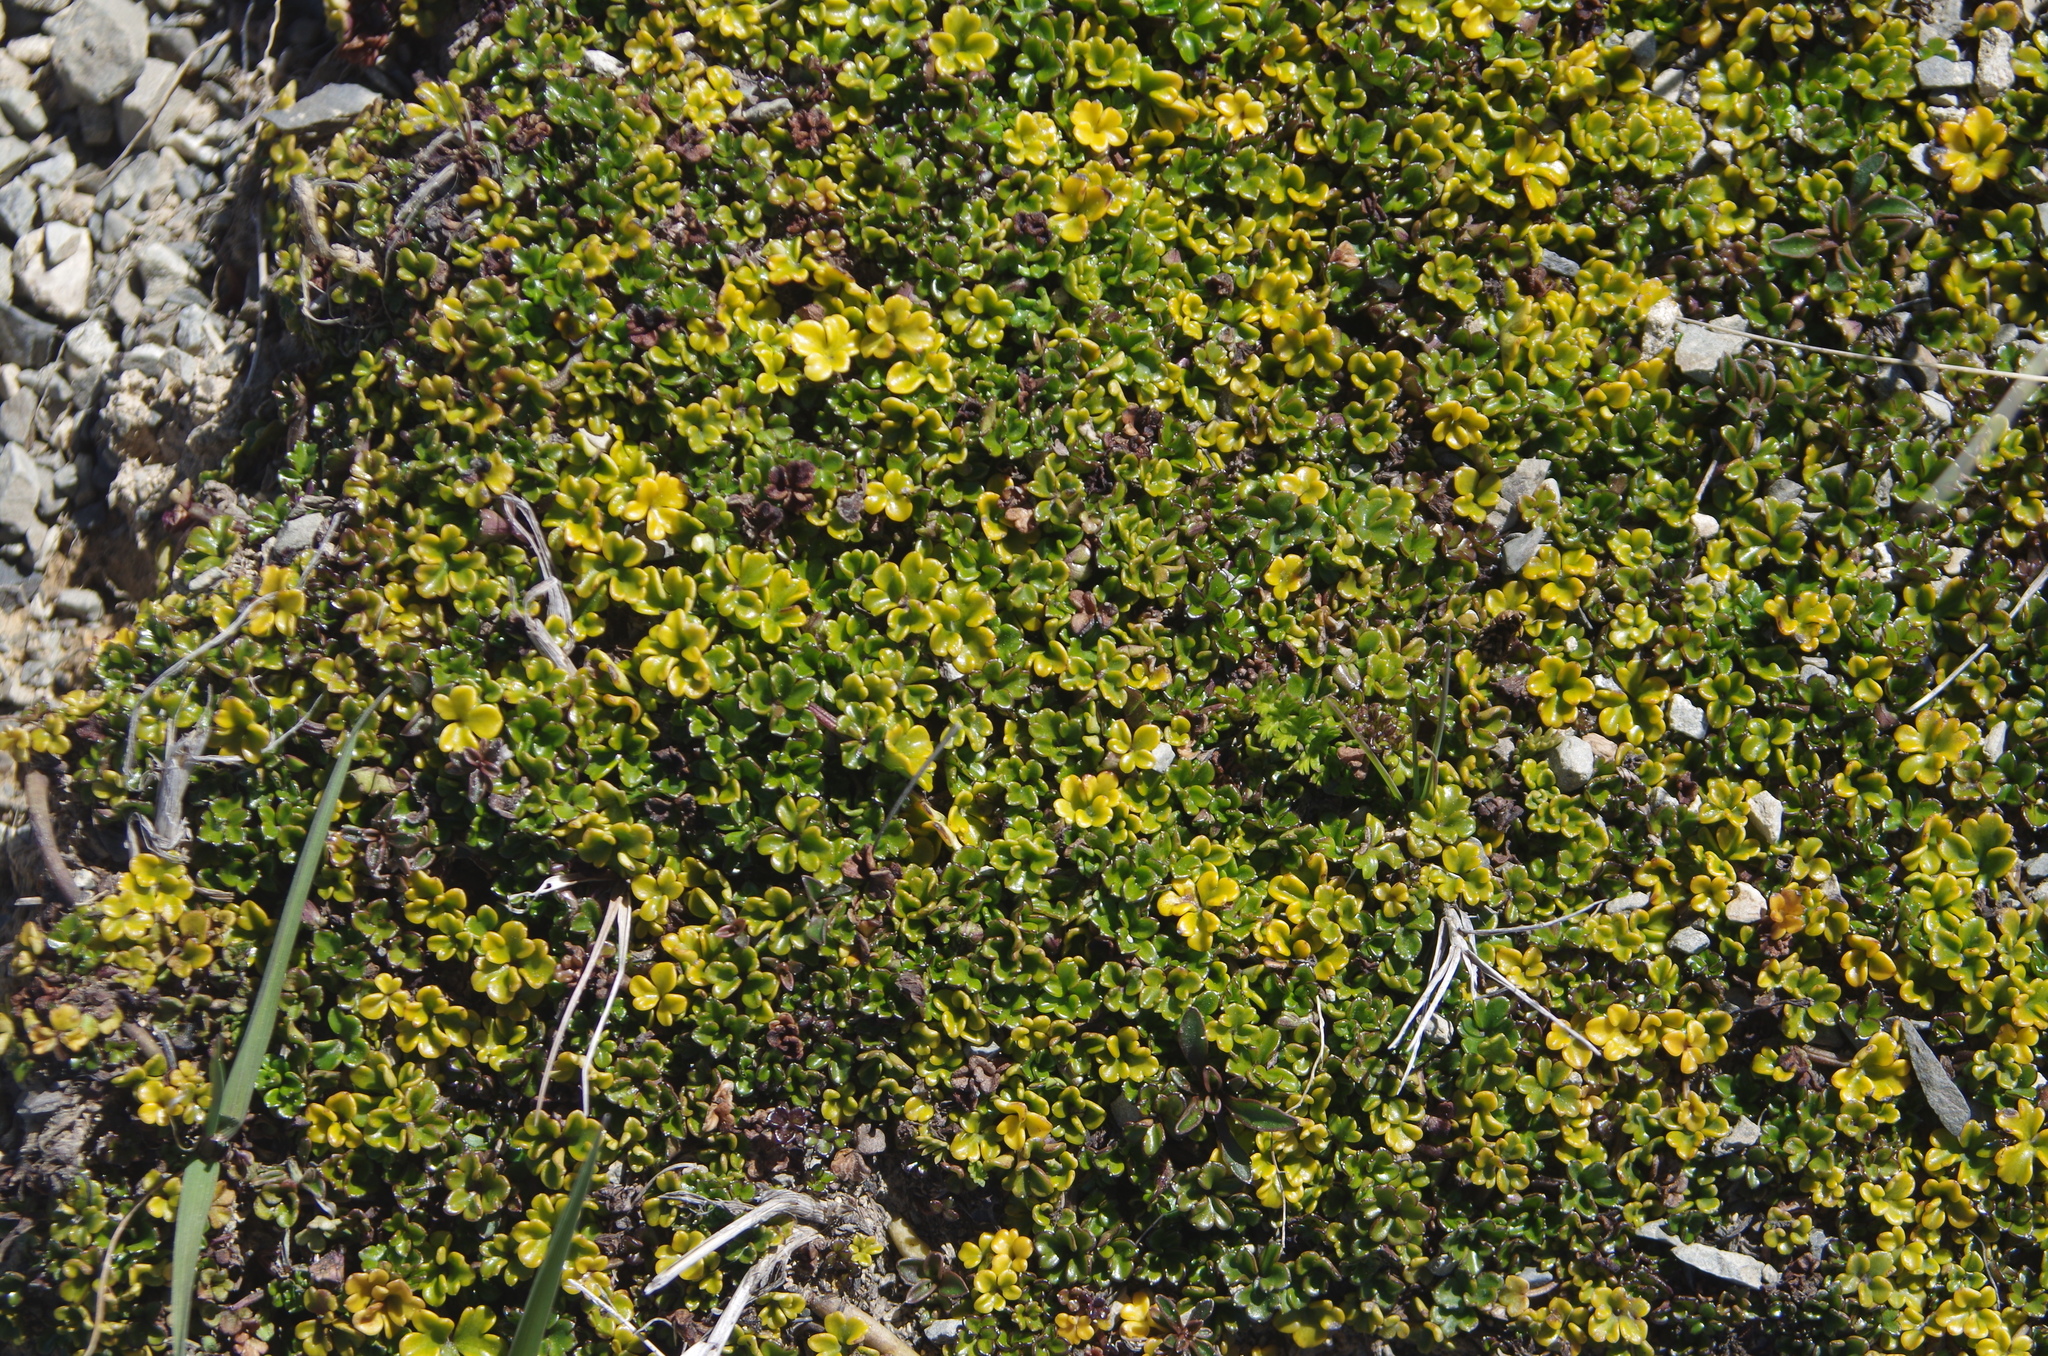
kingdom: Plantae
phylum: Tracheophyta
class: Magnoliopsida
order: Apiales
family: Apiaceae
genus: Azorella
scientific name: Azorella hydrocotyloides
